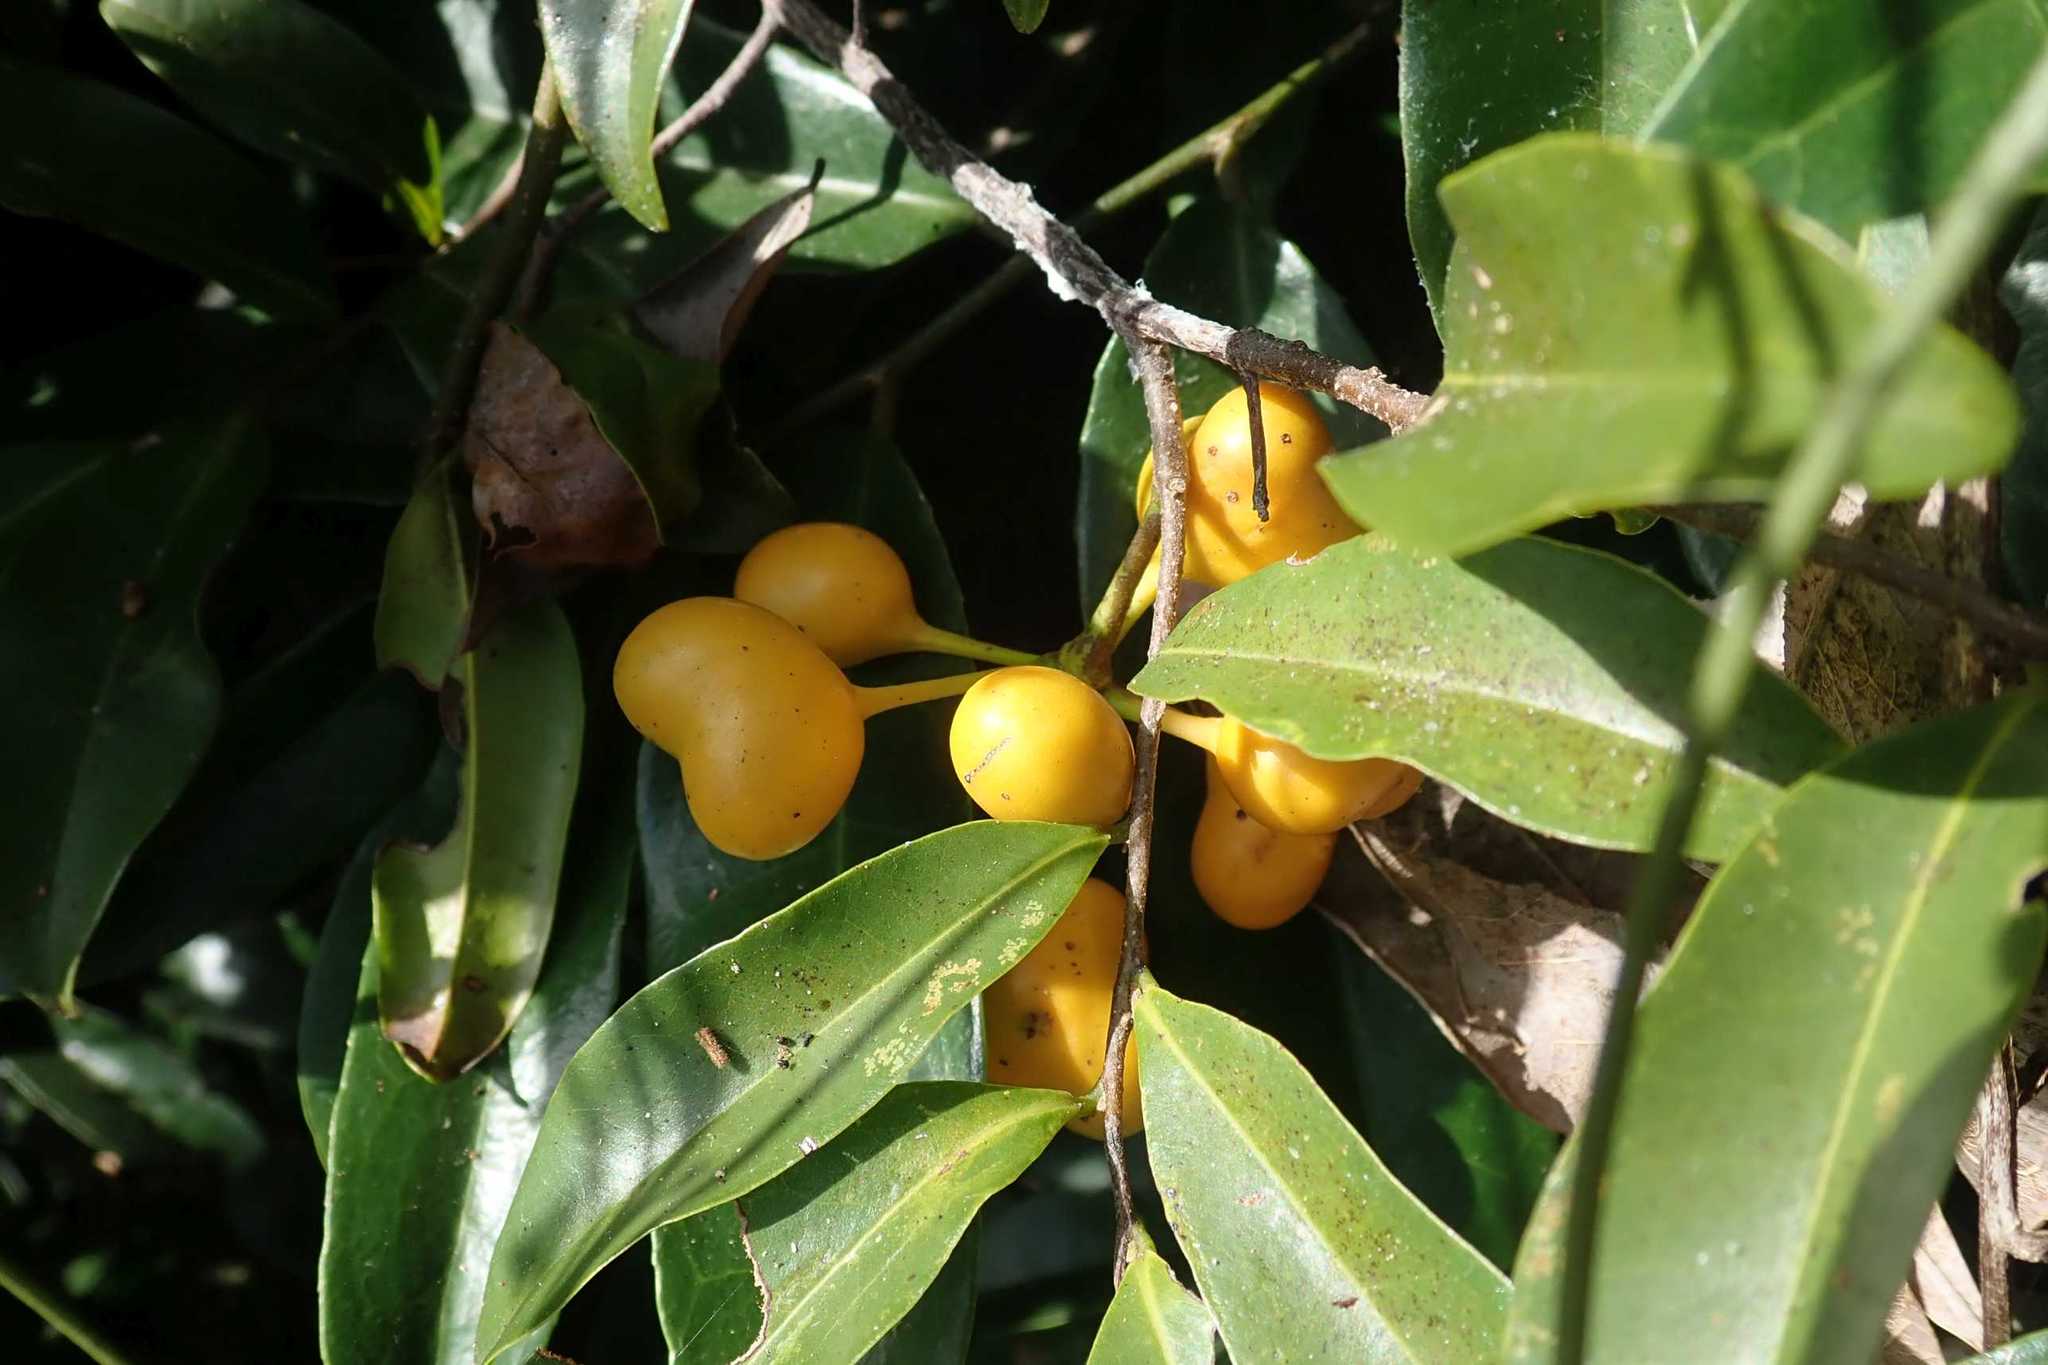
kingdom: Plantae
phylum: Tracheophyta
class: Magnoliopsida
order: Magnoliales
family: Annonaceae
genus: Uvaria
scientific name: Uvaria caffra
